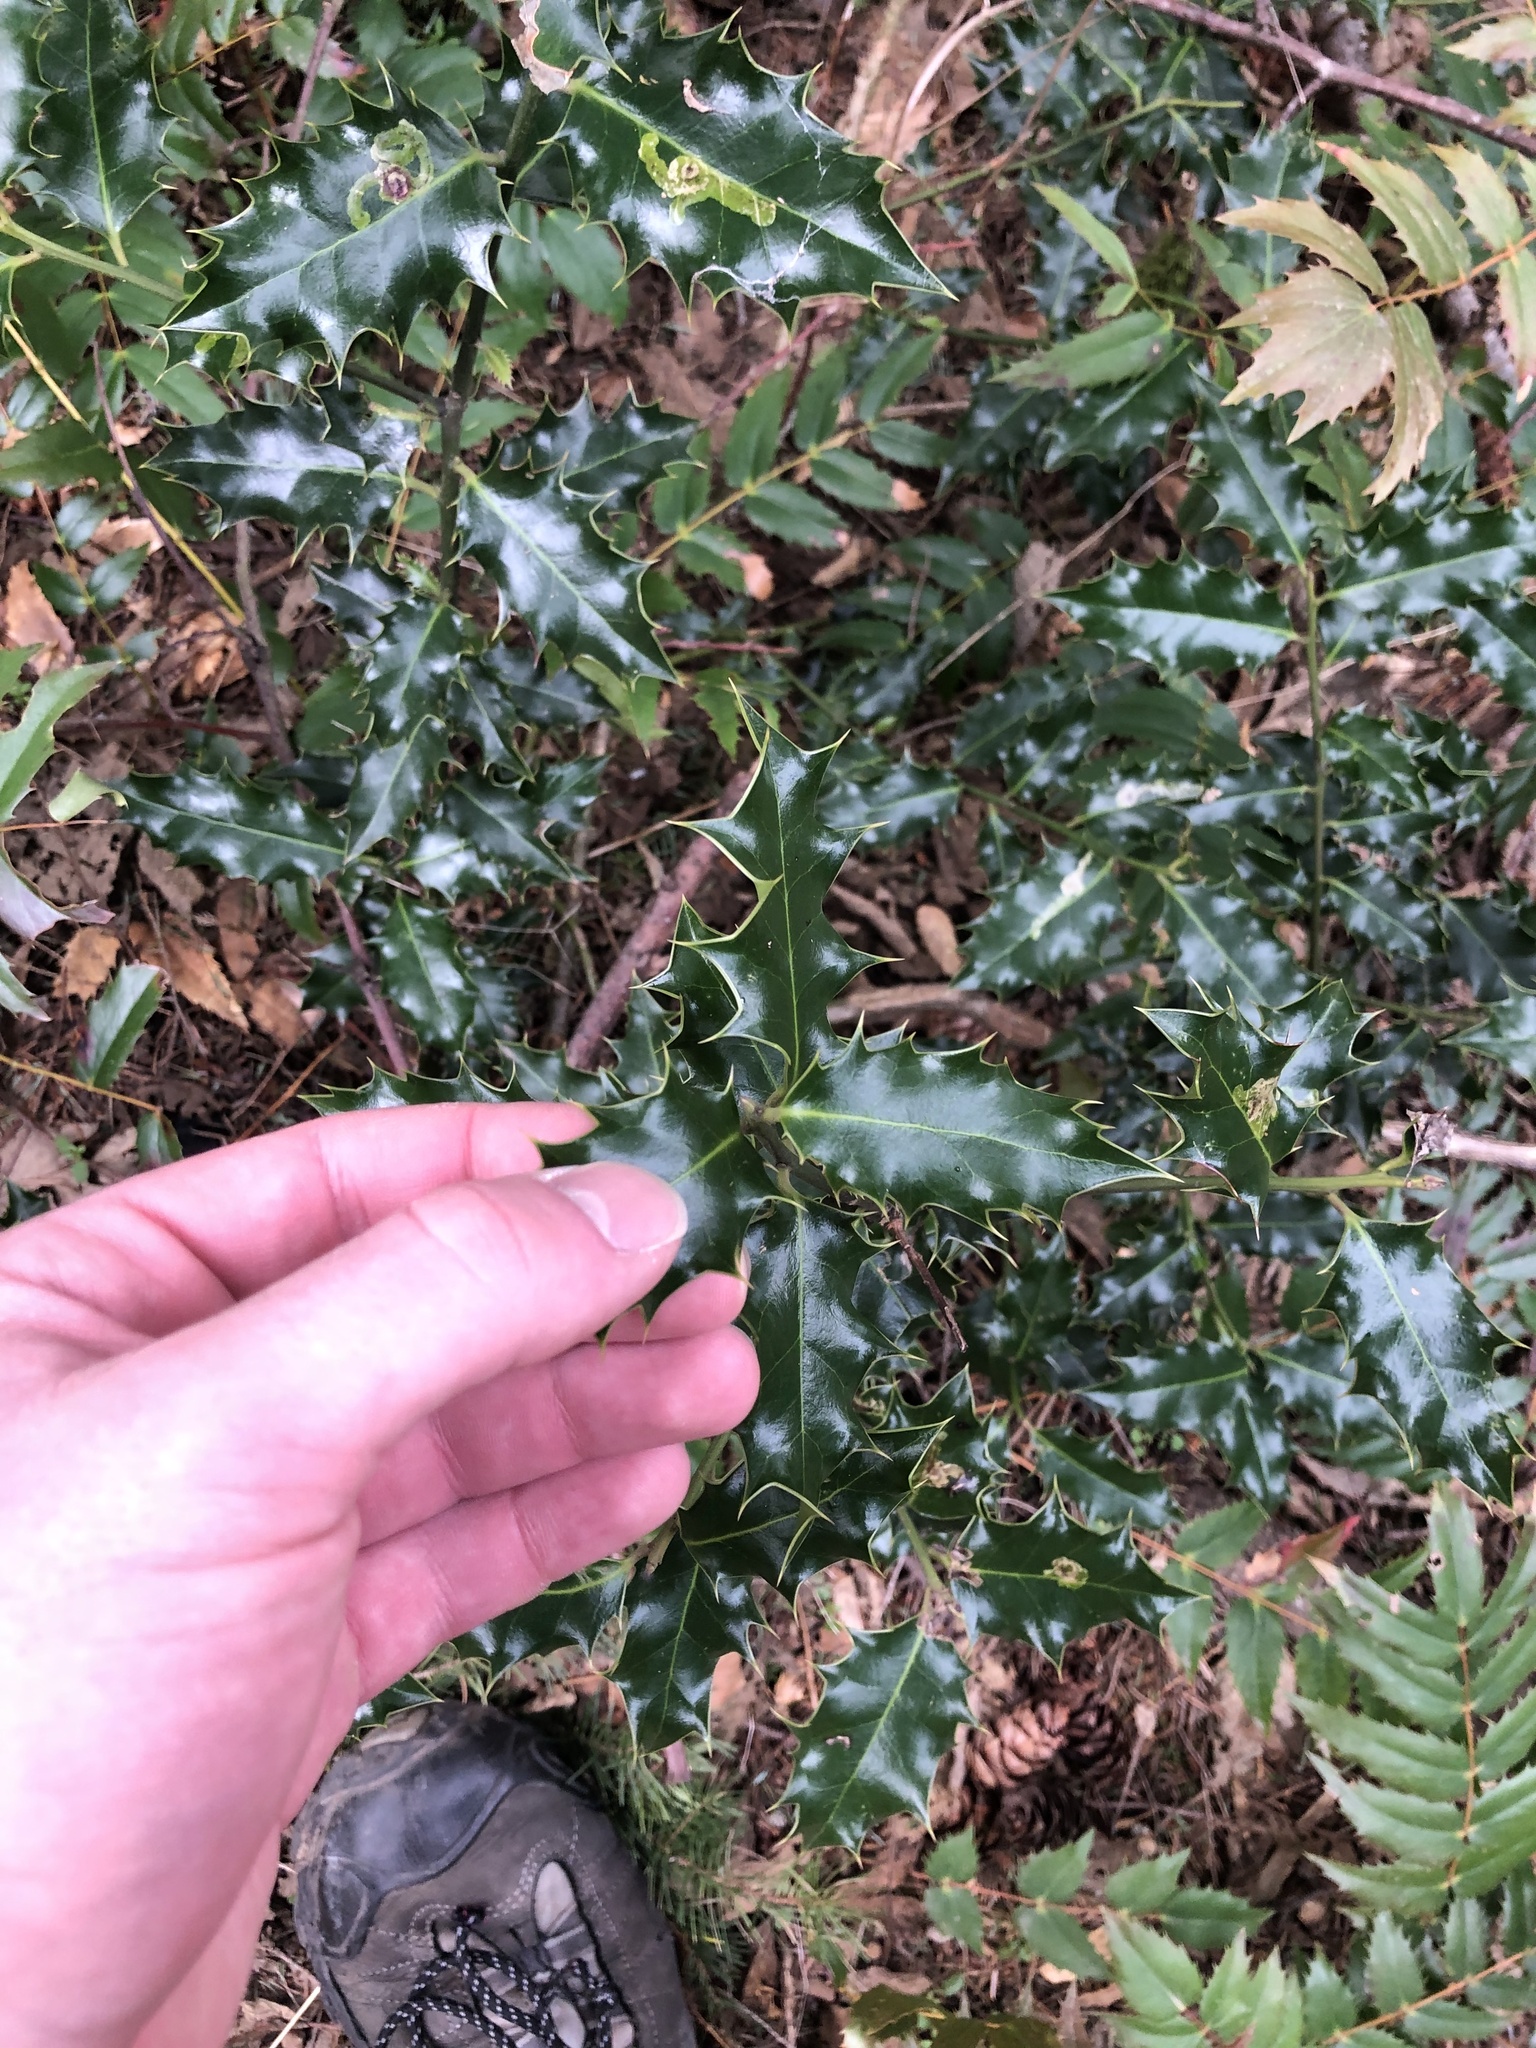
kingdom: Plantae
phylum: Tracheophyta
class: Magnoliopsida
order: Aquifoliales
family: Aquifoliaceae
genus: Ilex
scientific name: Ilex aquifolium
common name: English holly
